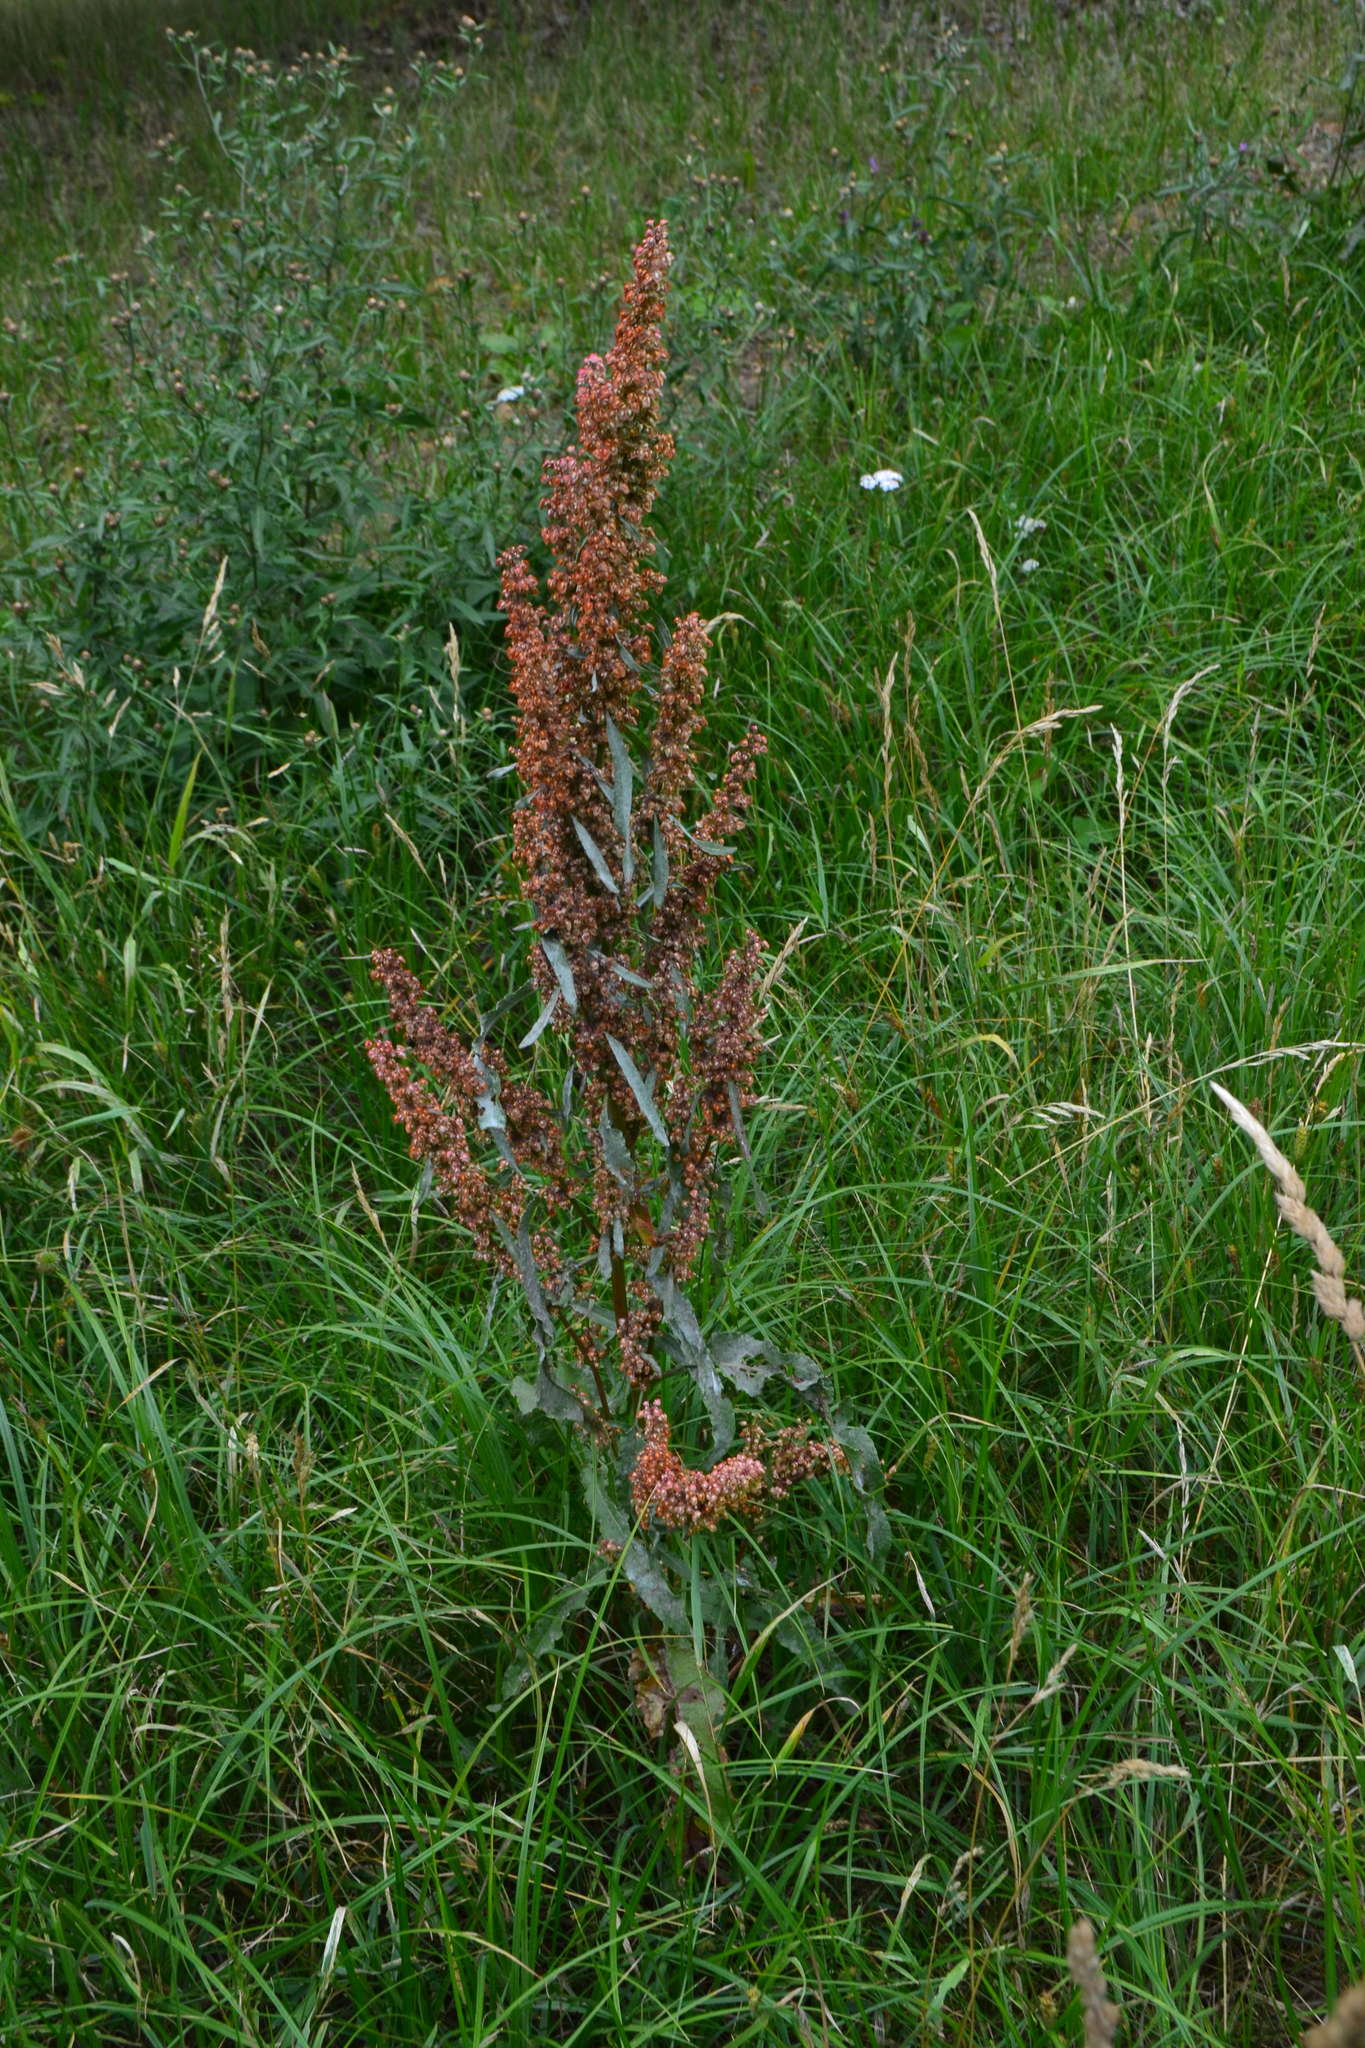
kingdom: Plantae
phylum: Tracheophyta
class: Magnoliopsida
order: Caryophyllales
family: Polygonaceae
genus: Rumex
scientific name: Rumex crispus
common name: Curled dock
